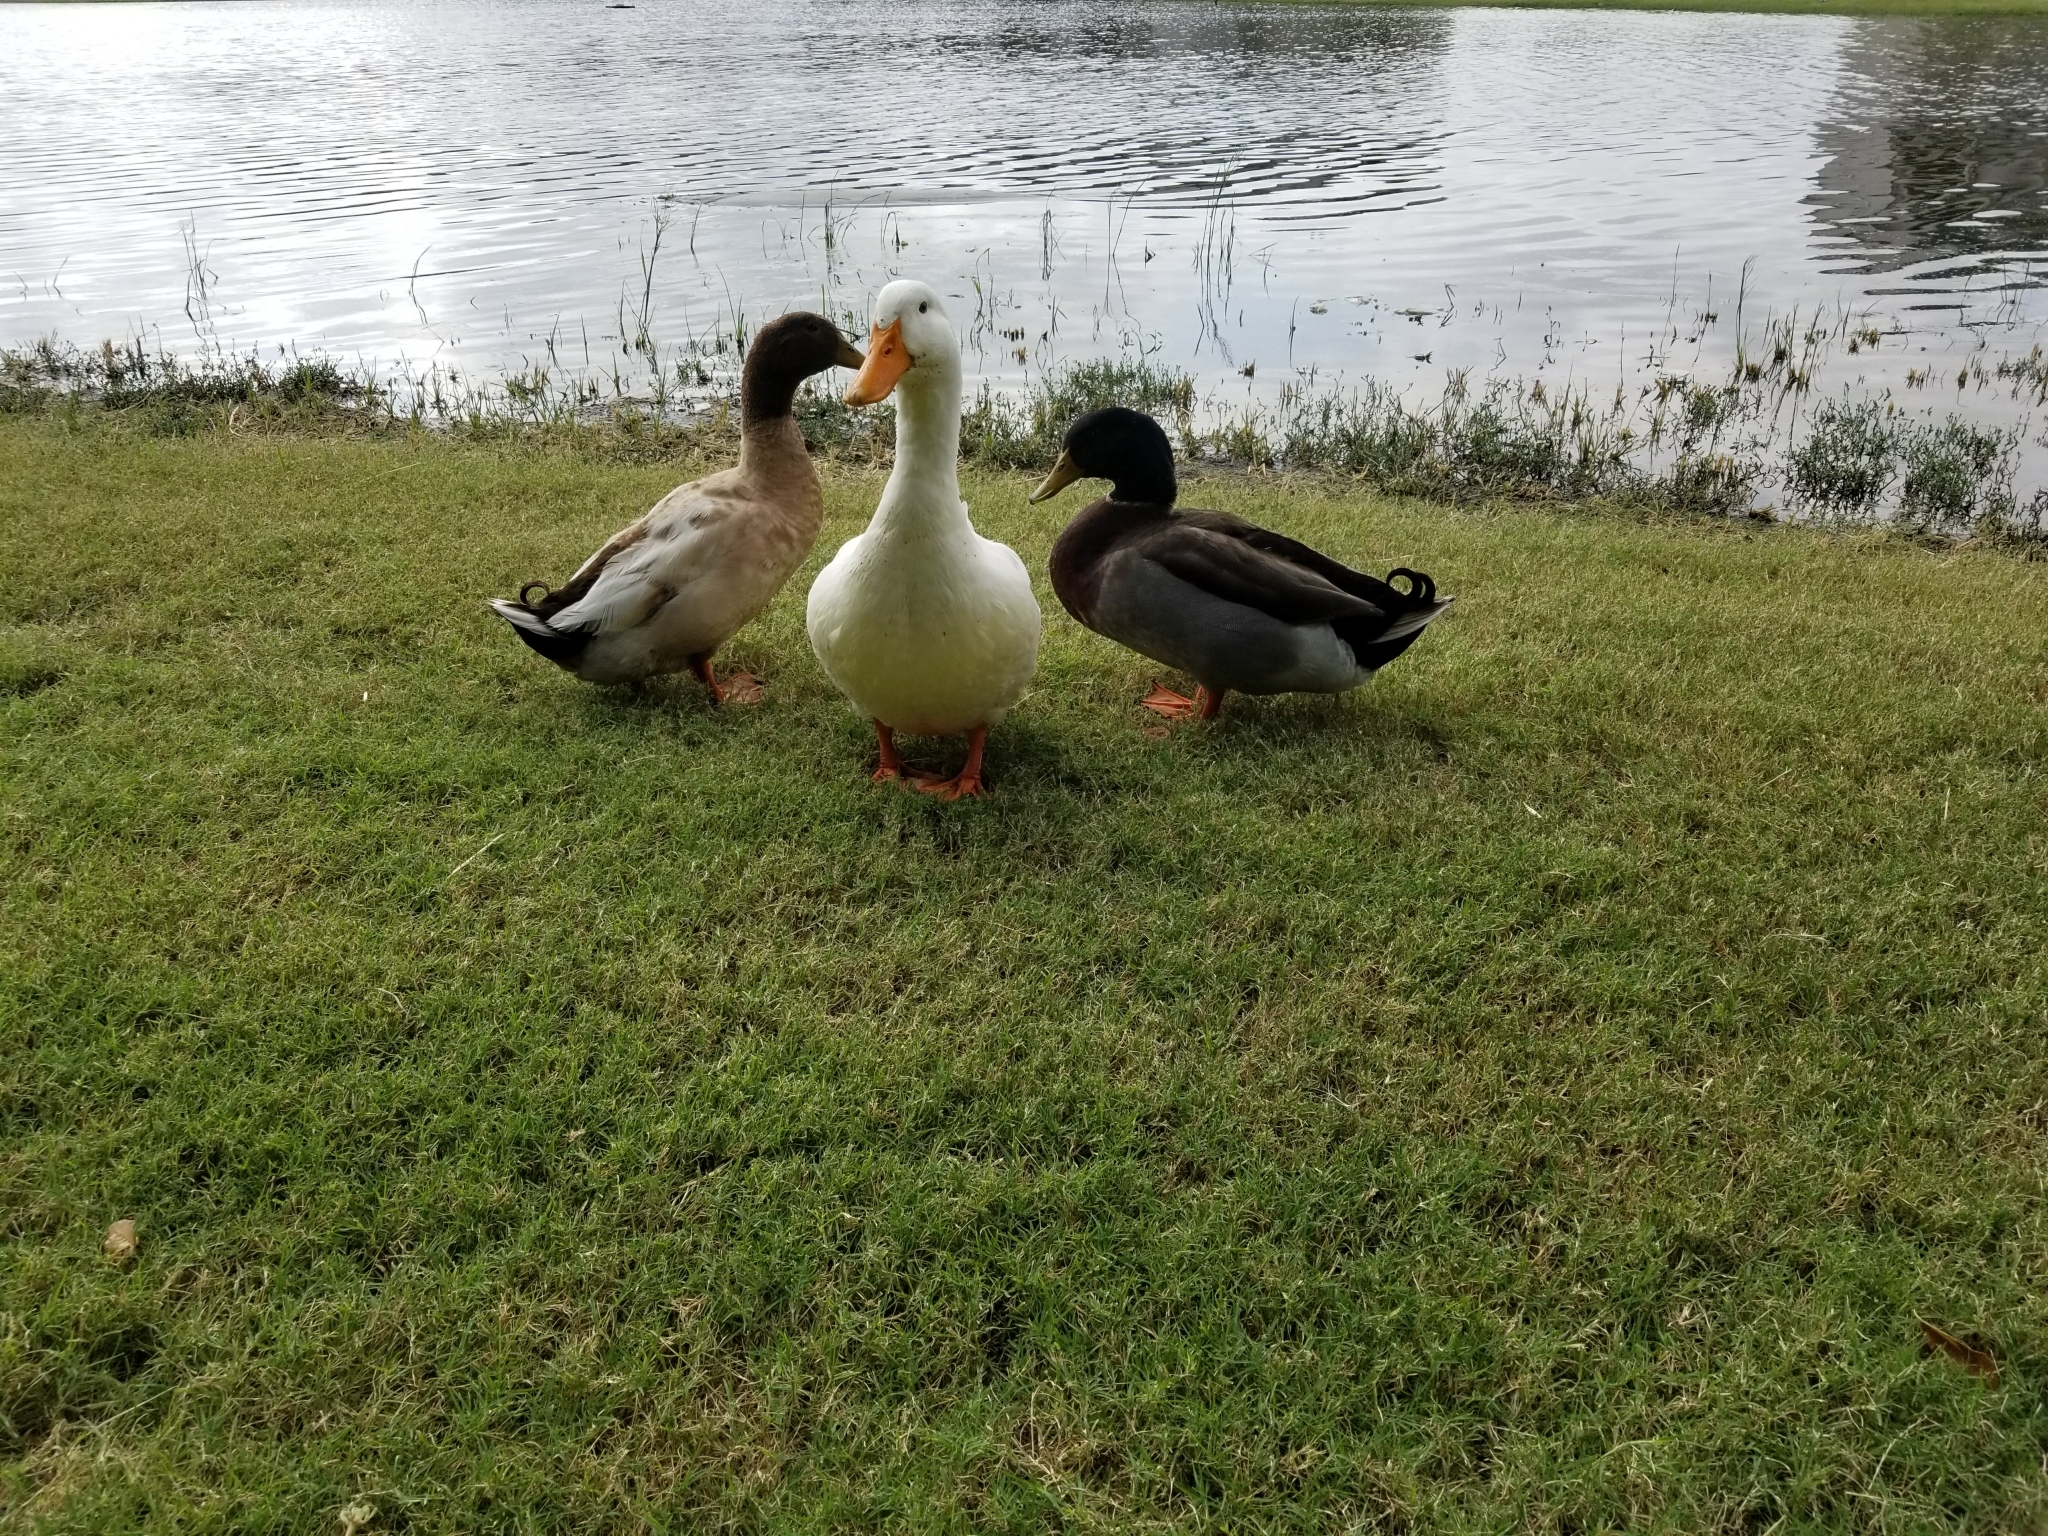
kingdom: Animalia
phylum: Chordata
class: Aves
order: Anseriformes
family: Anatidae
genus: Anas
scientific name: Anas platyrhynchos
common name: Mallard
